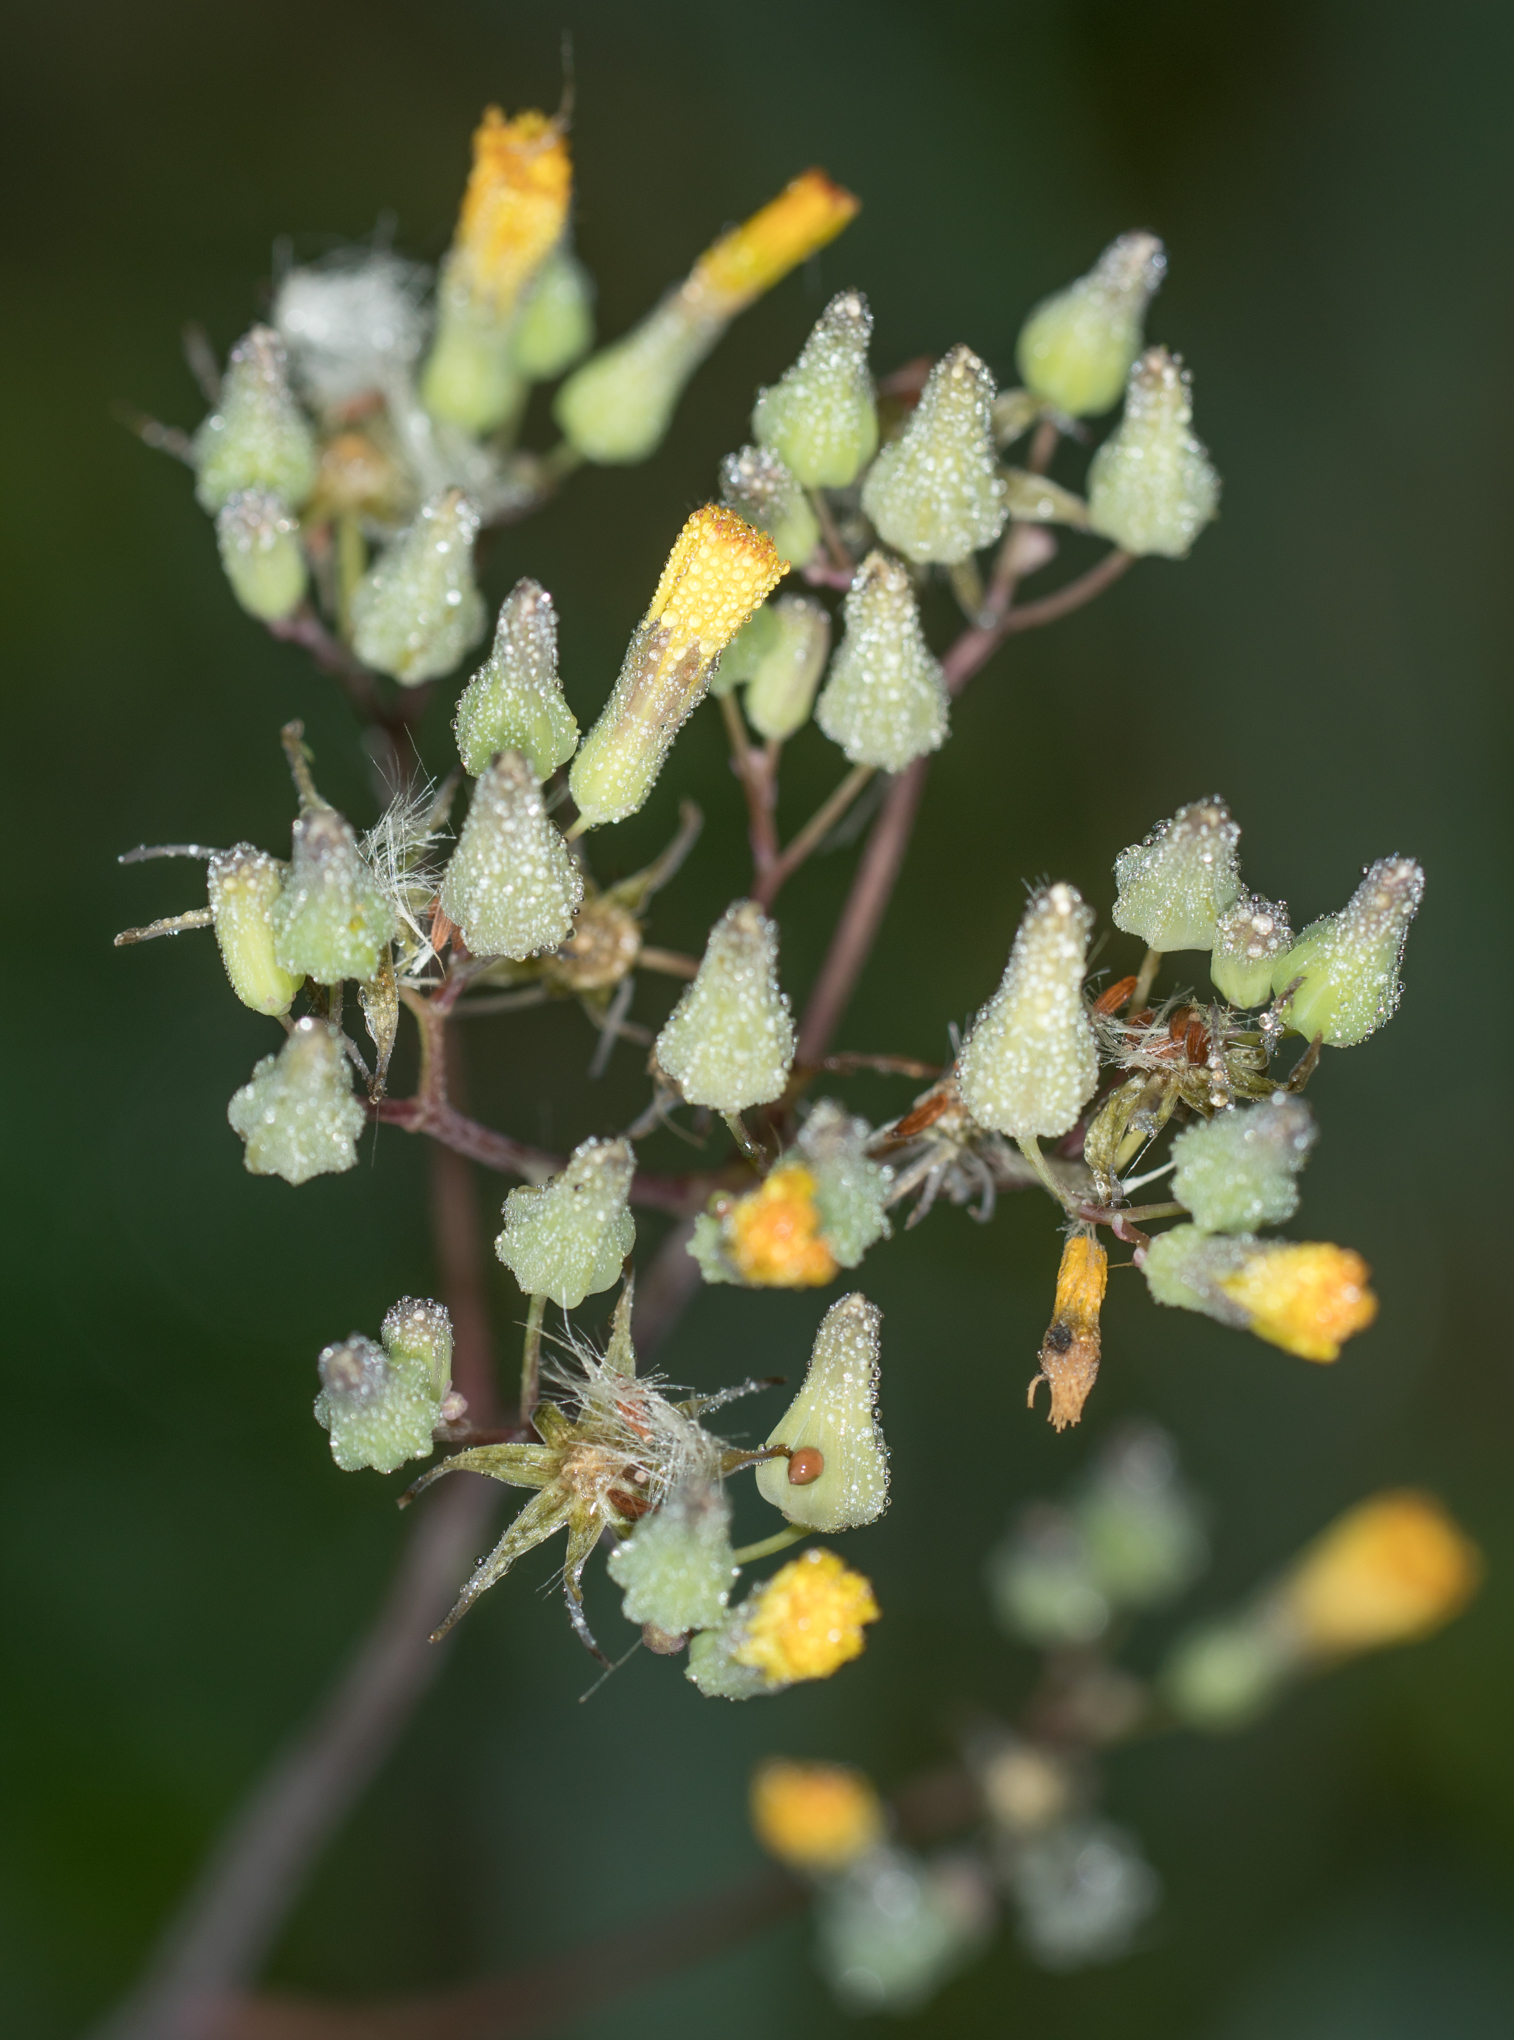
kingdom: Plantae
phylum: Tracheophyta
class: Magnoliopsida
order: Asterales
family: Asteraceae
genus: Youngia
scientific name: Youngia japonica
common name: Oriental false hawksbeard
